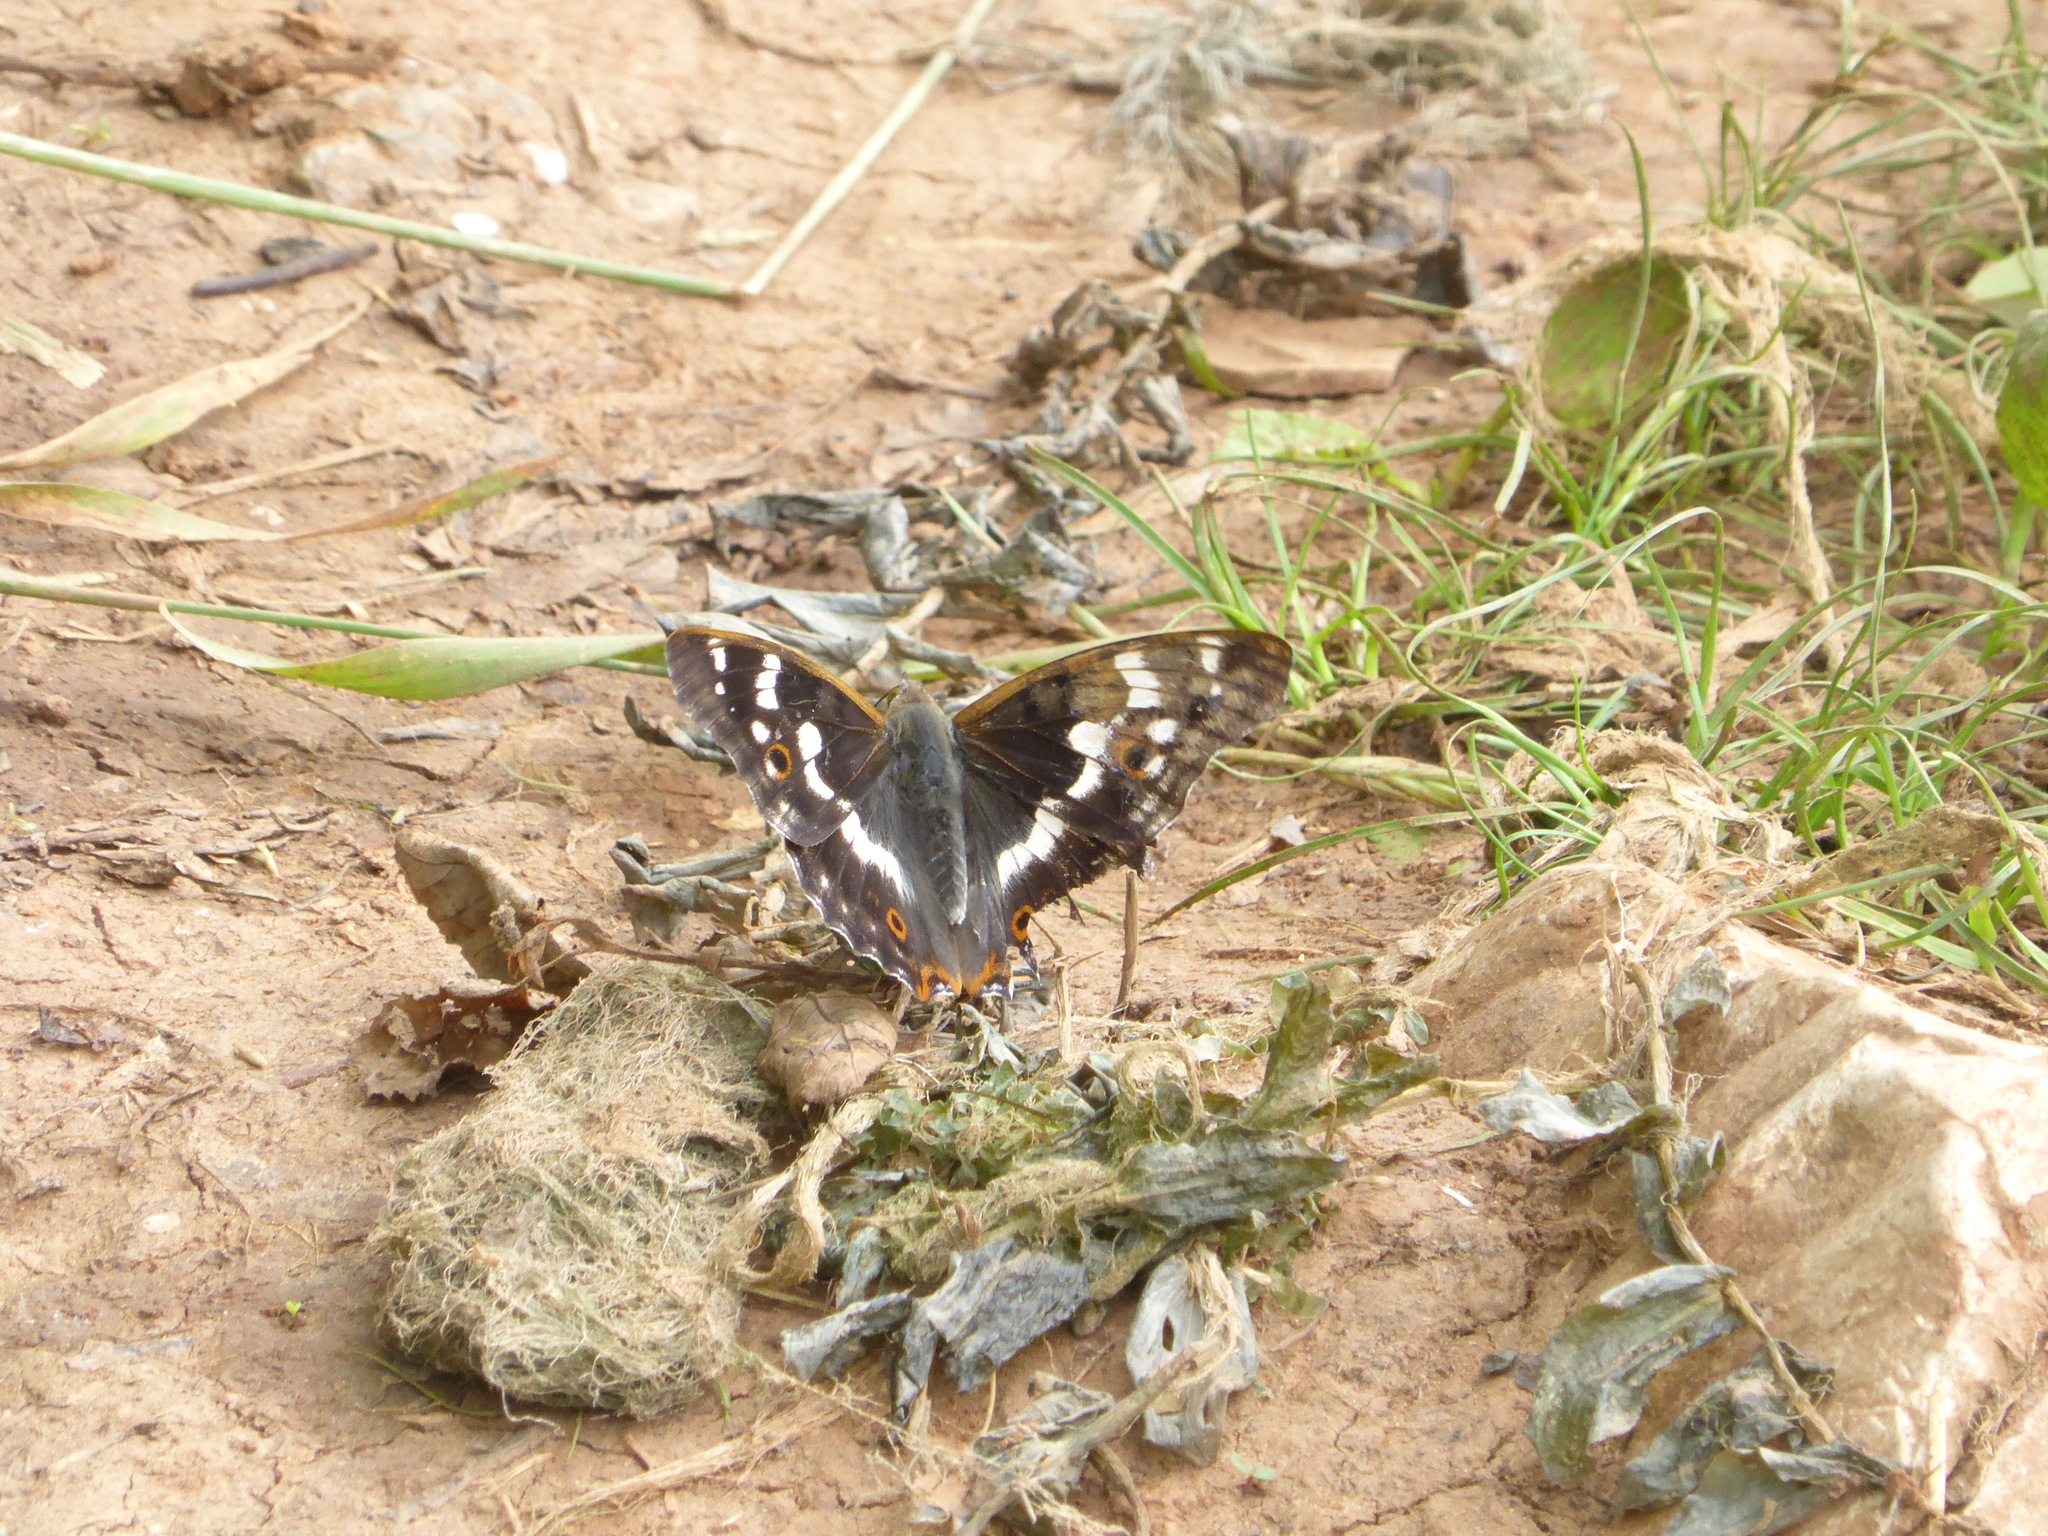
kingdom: Animalia
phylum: Arthropoda
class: Insecta
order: Lepidoptera
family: Nymphalidae
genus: Apatura
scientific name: Apatura ilia
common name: Lesser purple emperor
